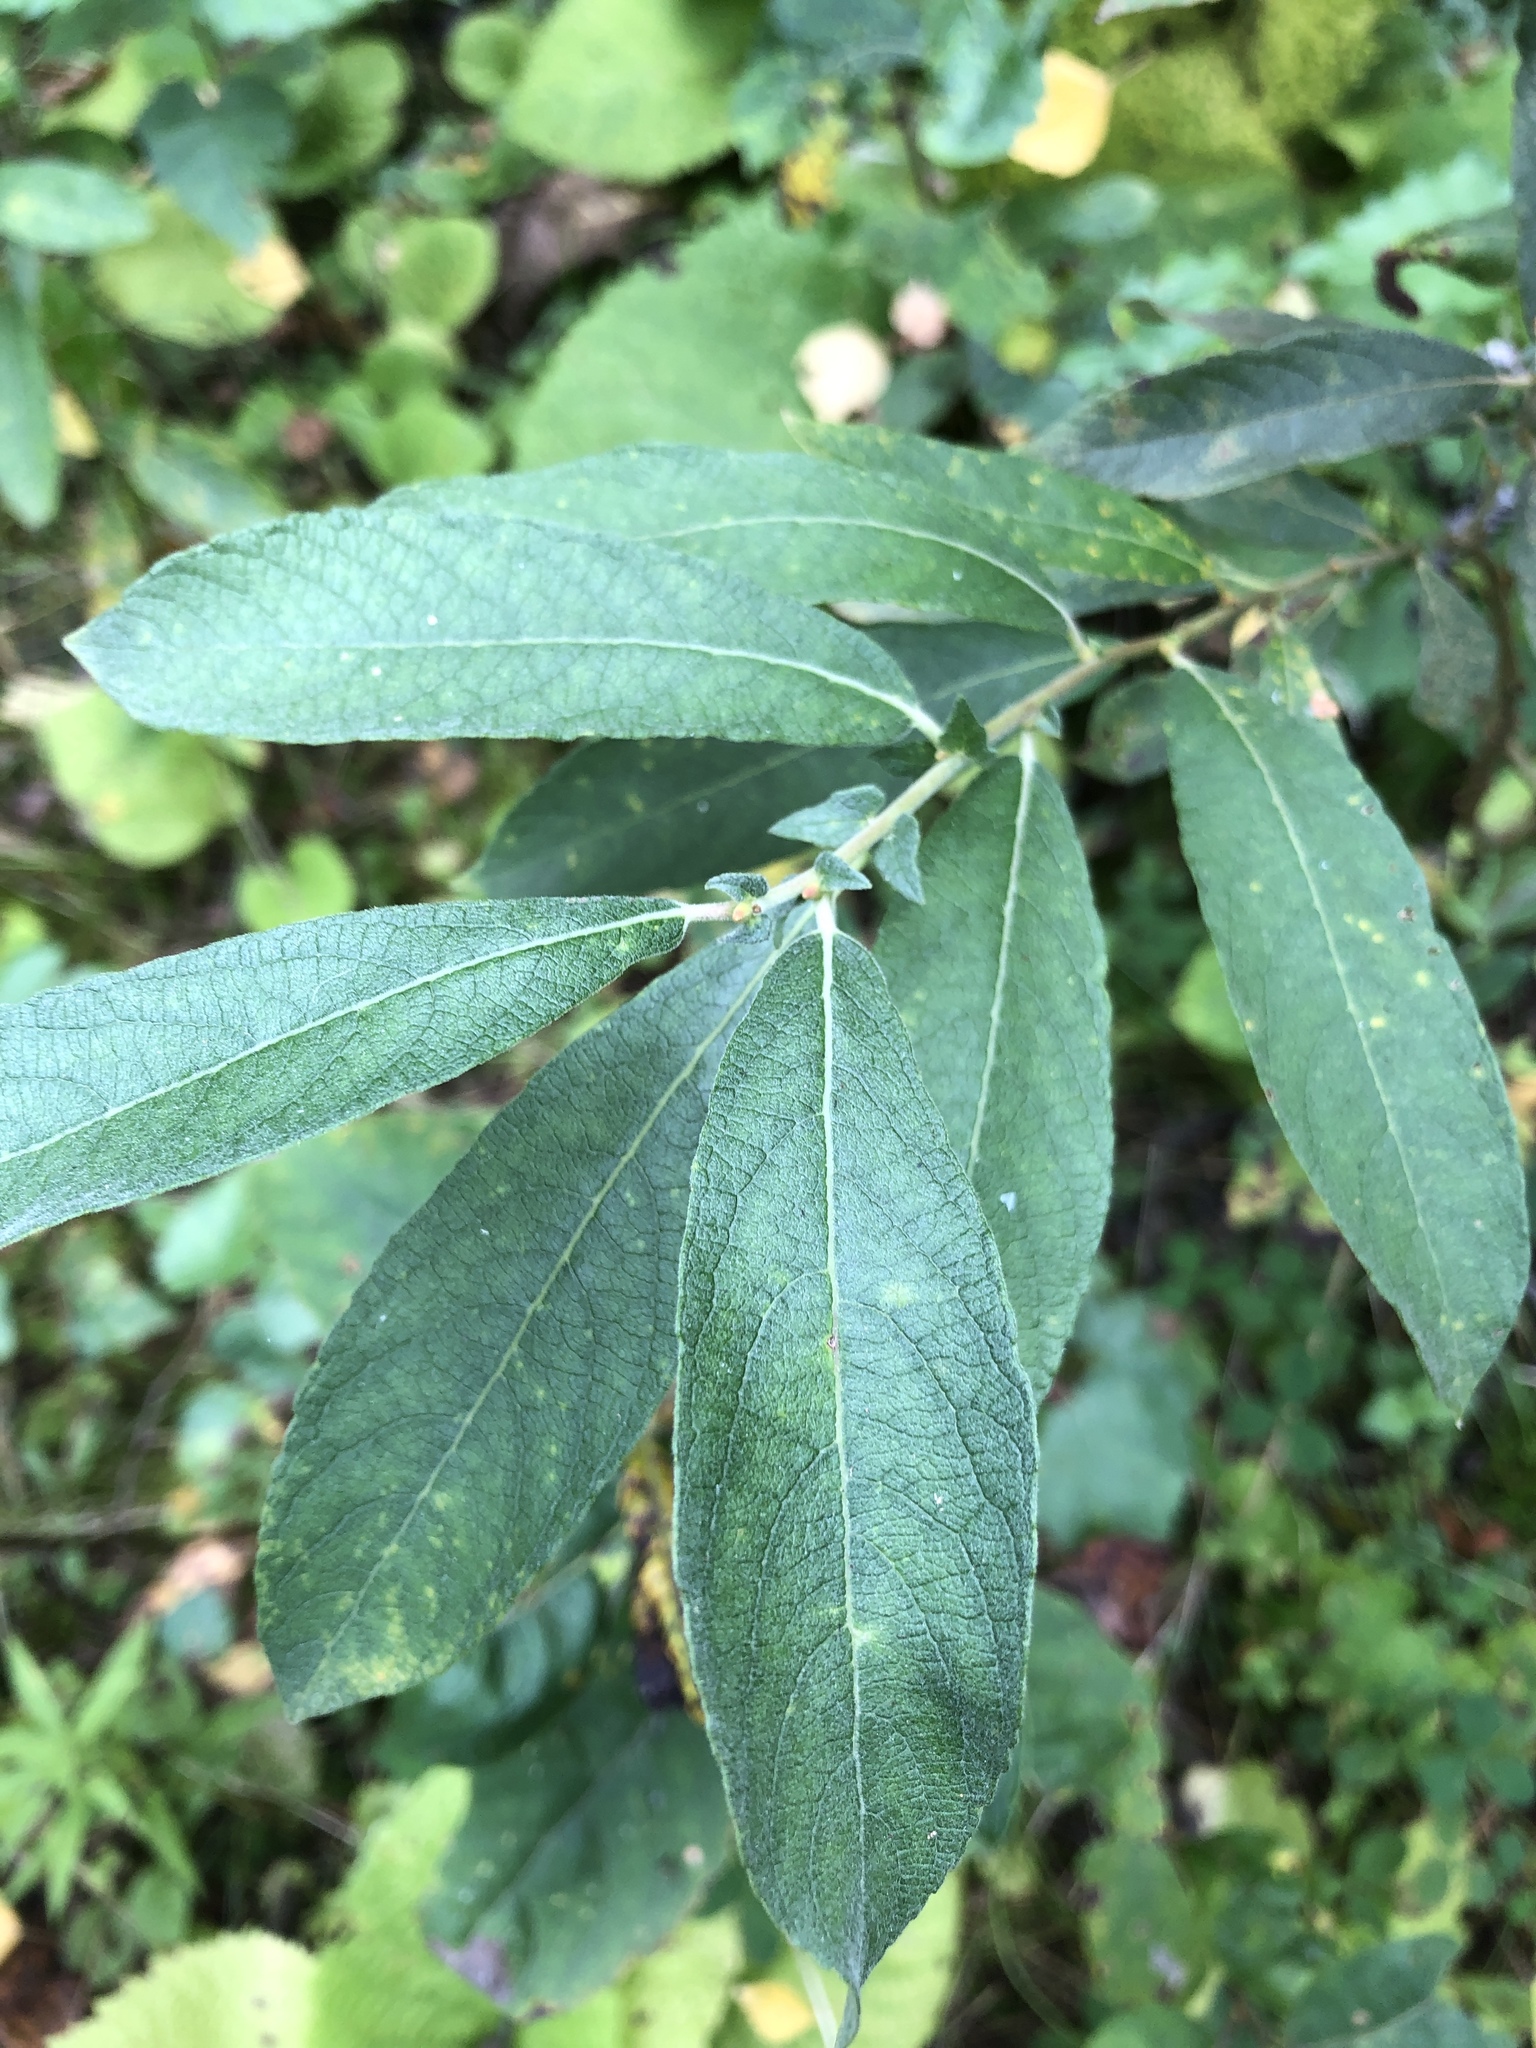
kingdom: Plantae
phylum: Tracheophyta
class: Magnoliopsida
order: Malpighiales
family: Salicaceae
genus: Salix
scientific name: Salix caprea
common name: Goat willow
